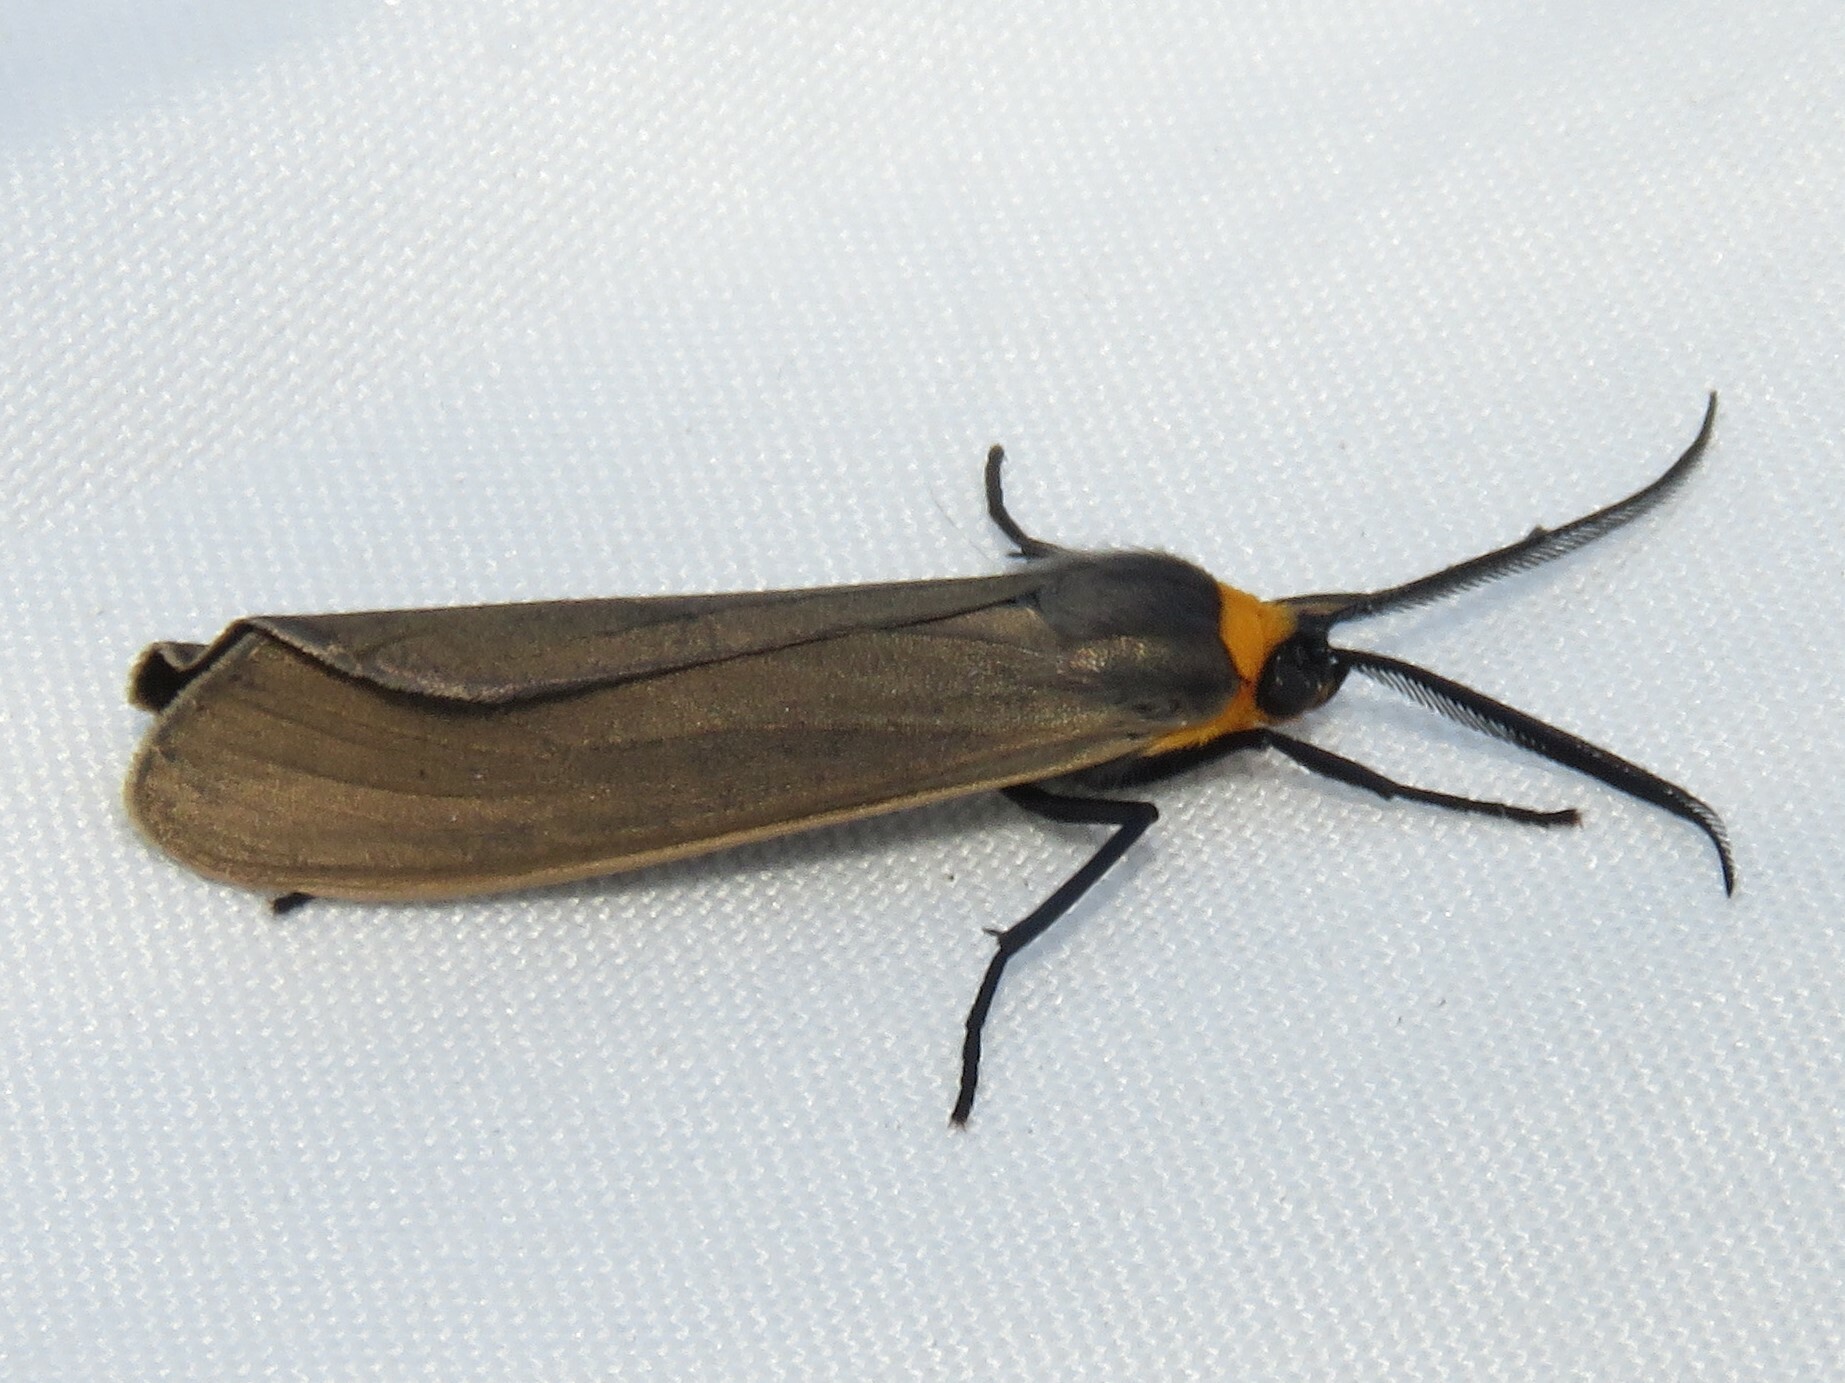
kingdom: Animalia
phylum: Arthropoda
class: Insecta
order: Lepidoptera
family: Erebidae
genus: Cisseps
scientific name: Cisseps fulvicollis
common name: Yellow-collared scape moth
